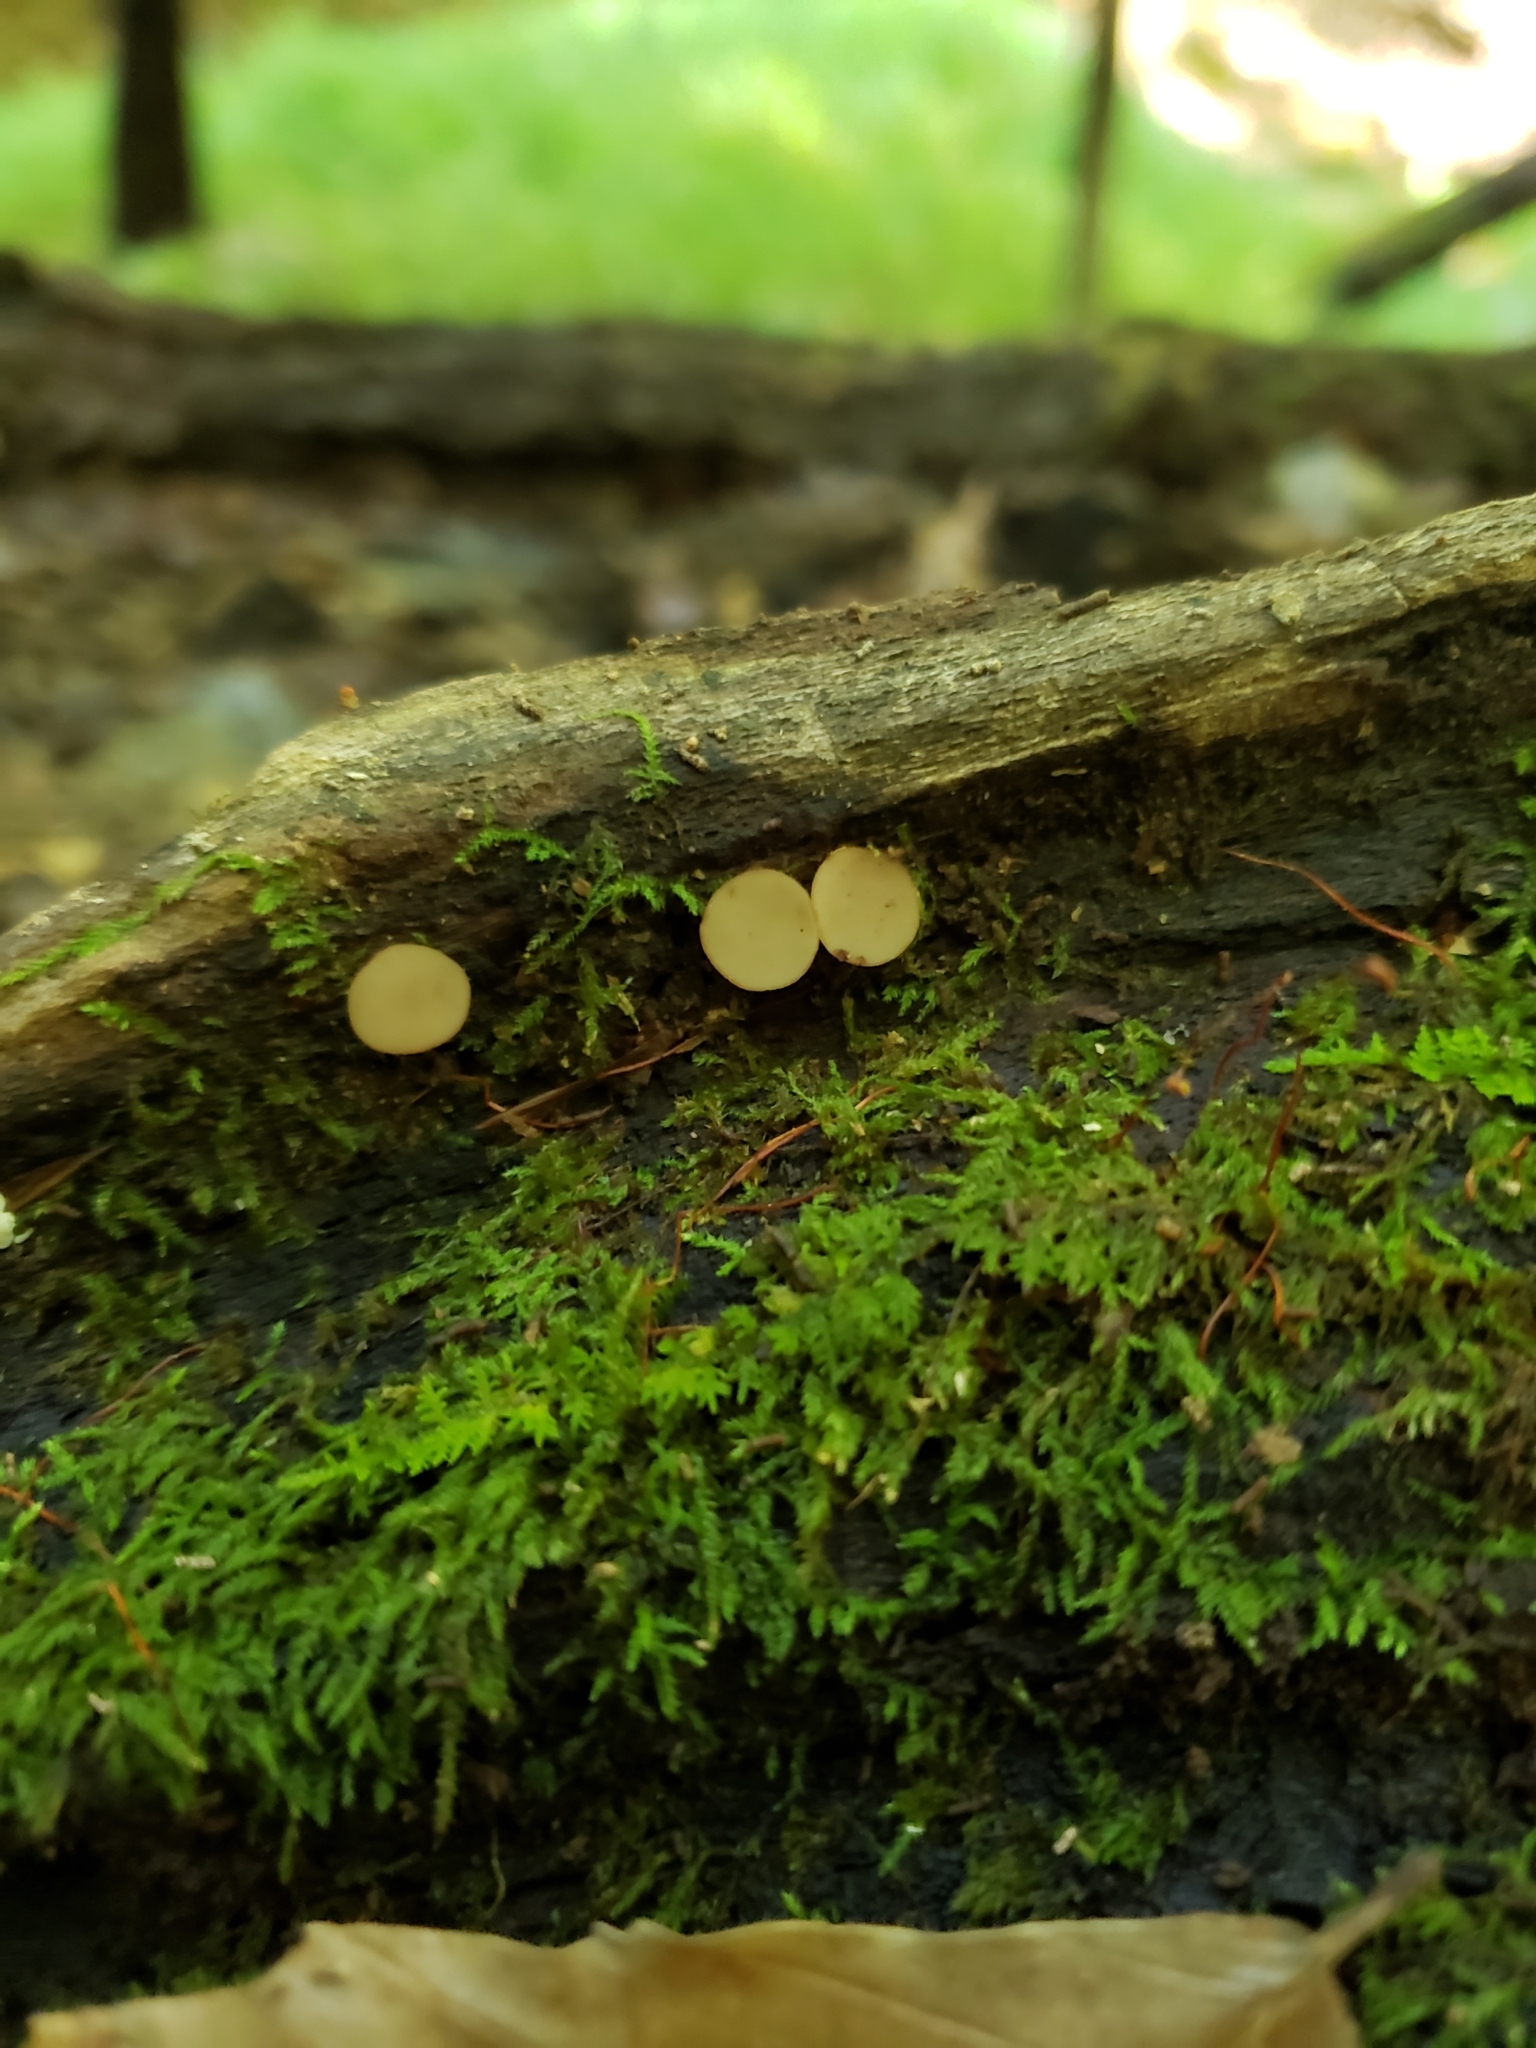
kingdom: Fungi
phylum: Ascomycota
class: Leotiomycetes
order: Helotiales
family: Helotiaceae
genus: Tatraea
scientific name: Tatraea macrospora
